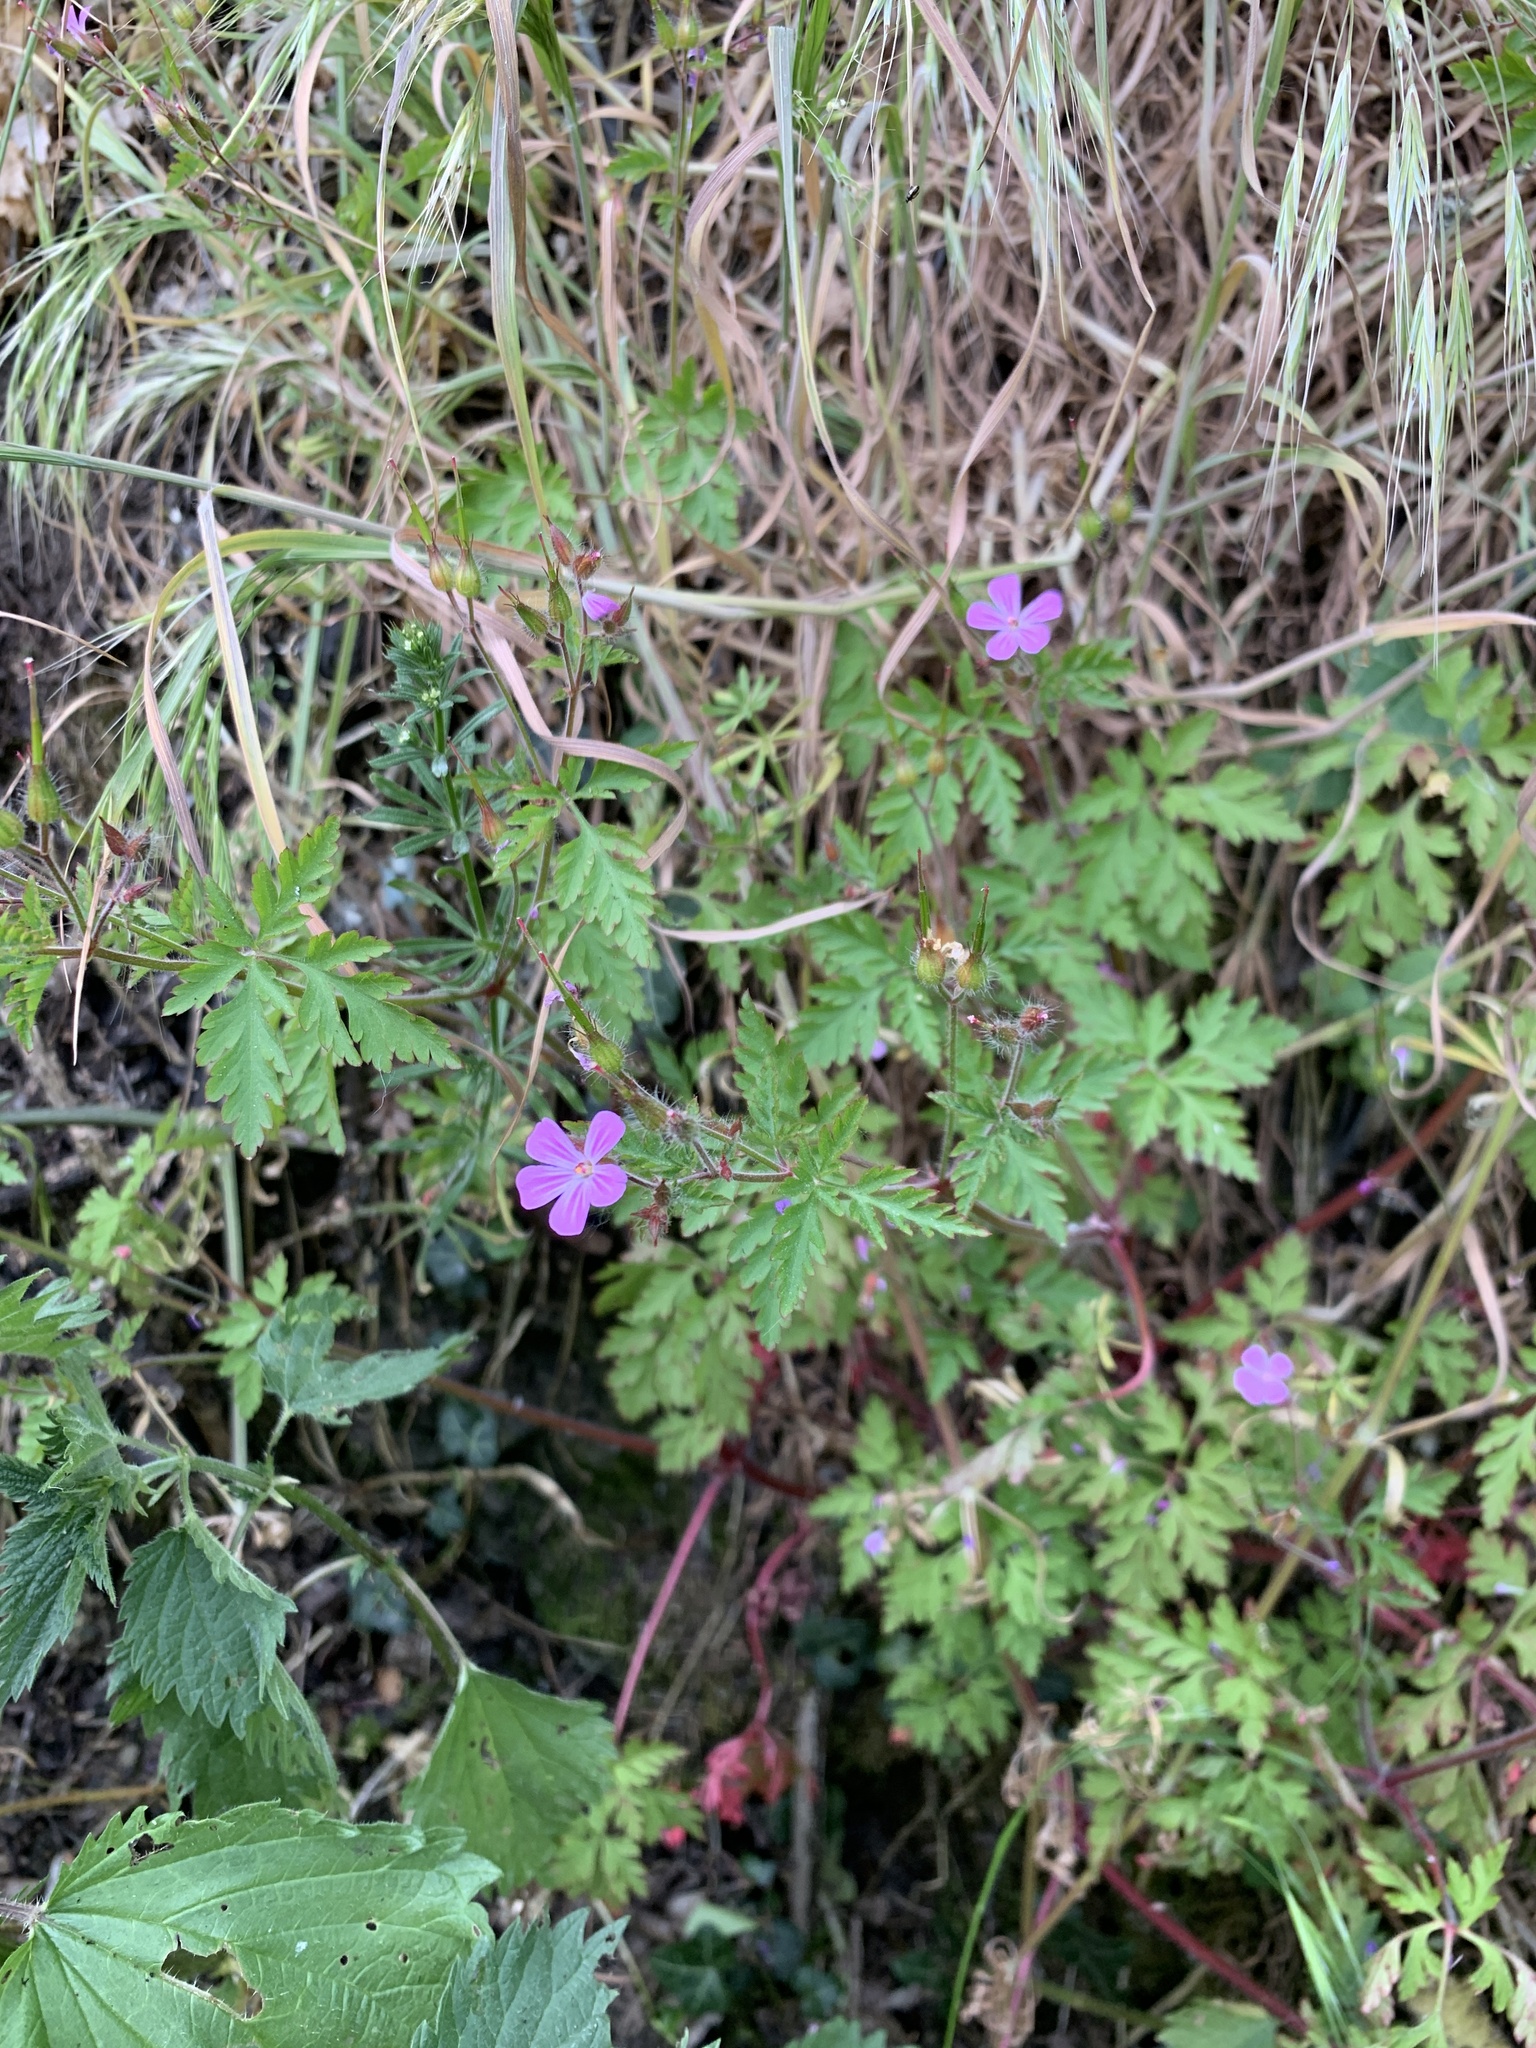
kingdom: Plantae
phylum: Tracheophyta
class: Magnoliopsida
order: Geraniales
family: Geraniaceae
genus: Geranium
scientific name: Geranium robertianum
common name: Herb-robert
